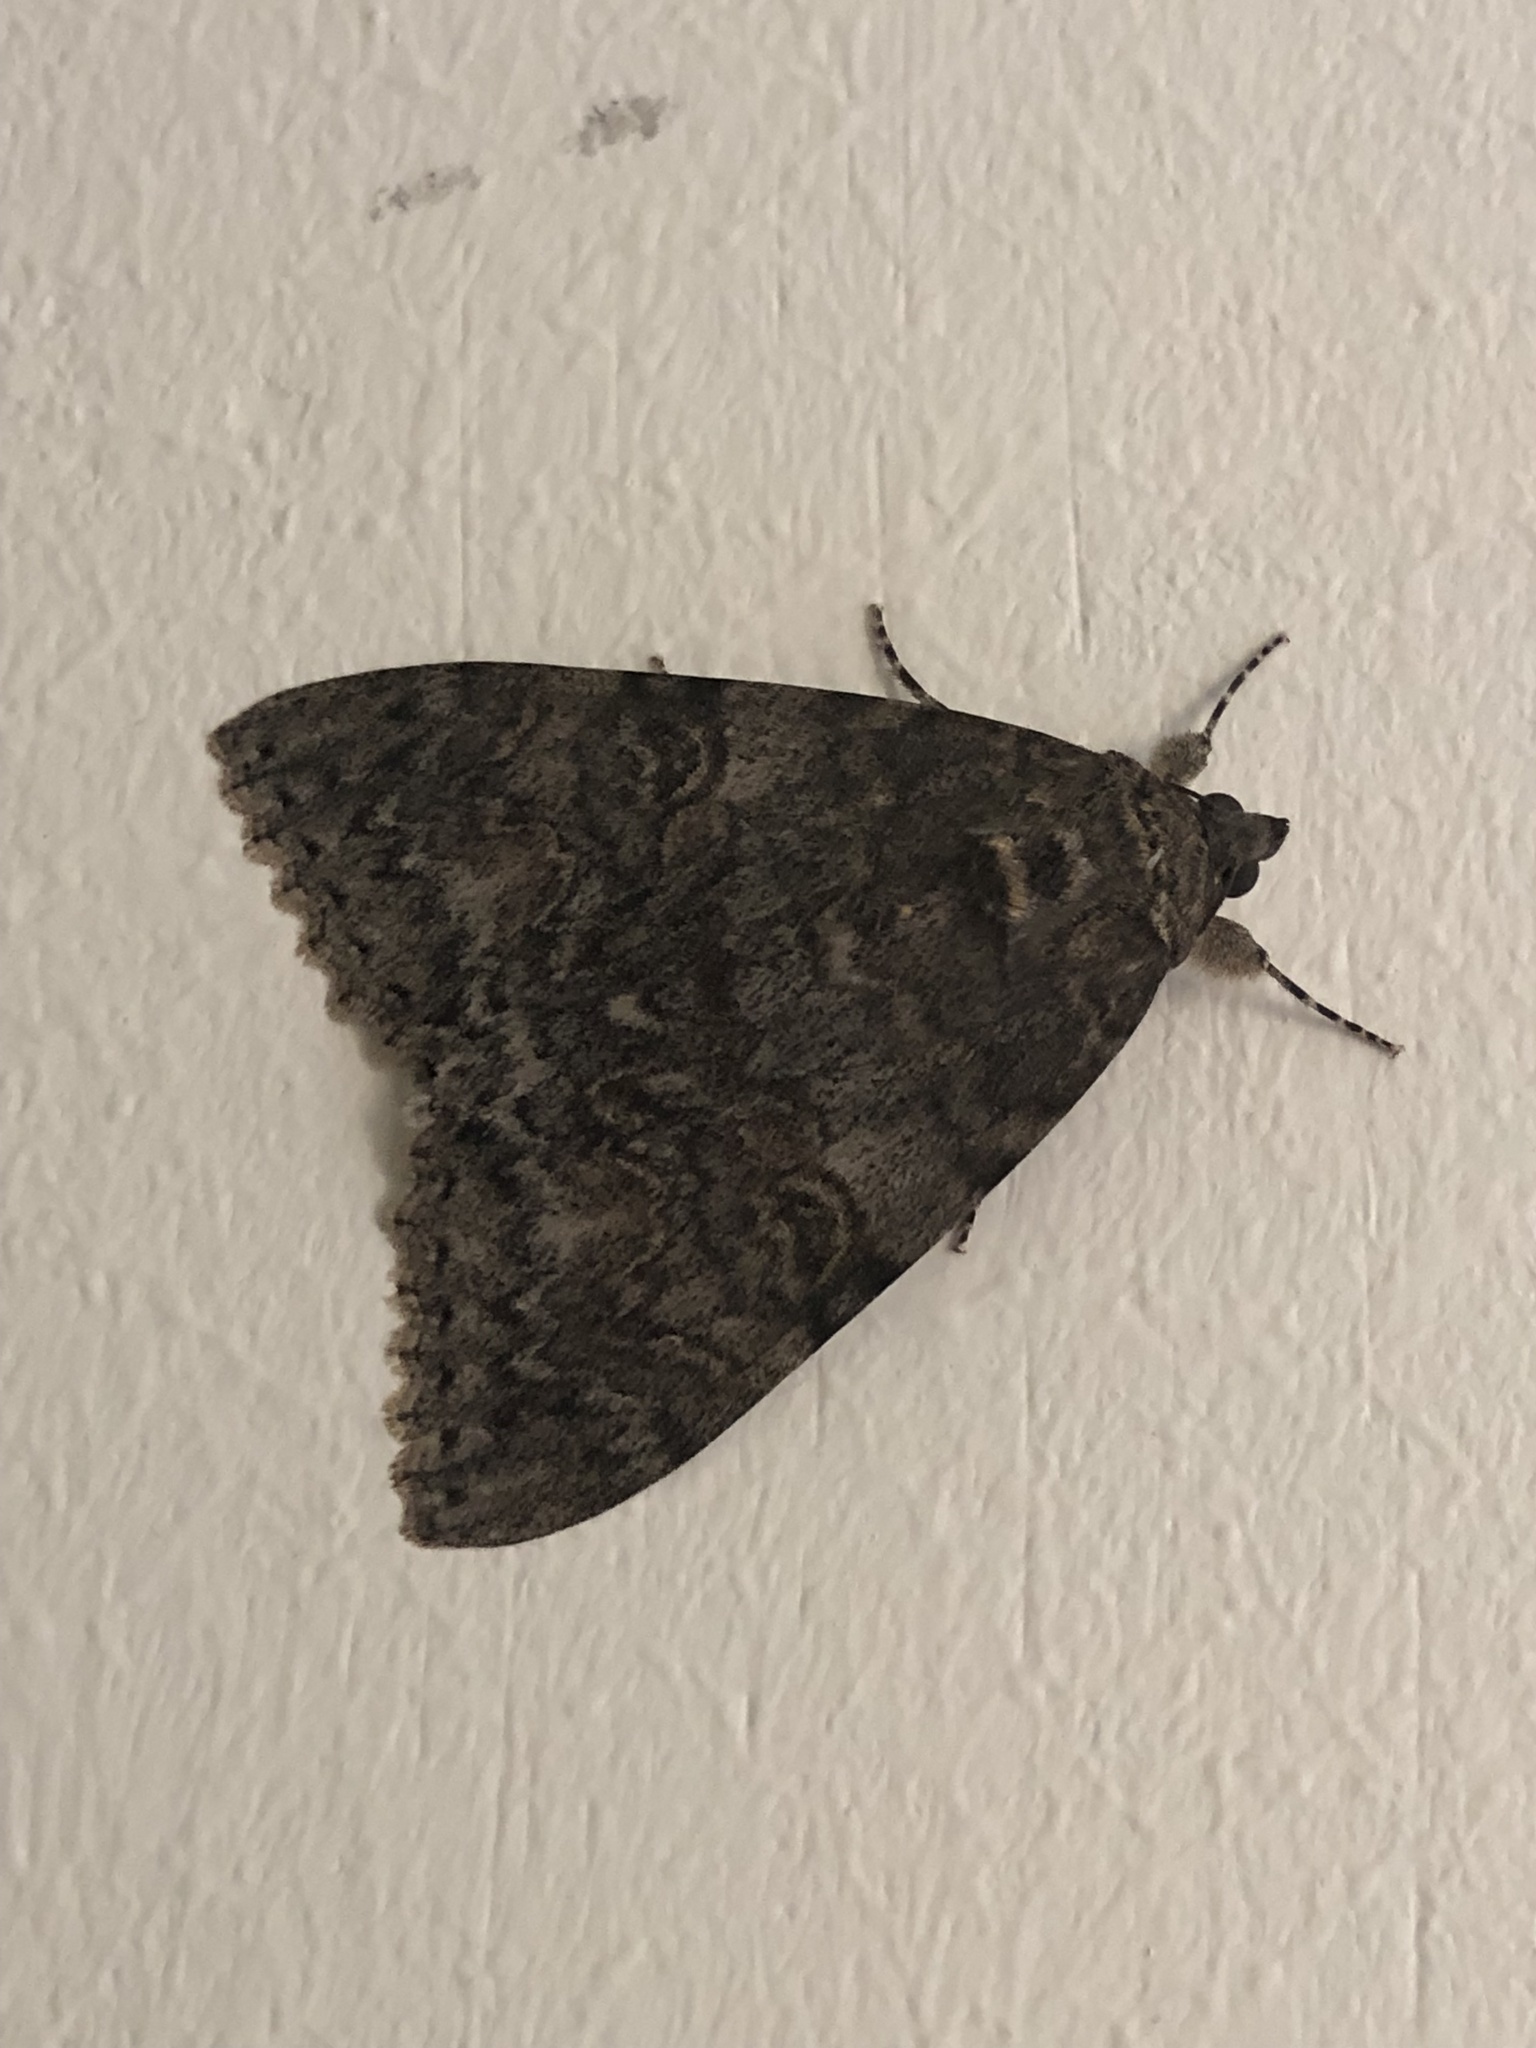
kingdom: Animalia
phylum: Arthropoda
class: Insecta
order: Lepidoptera
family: Erebidae
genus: Catocala
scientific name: Catocala nupta
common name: Red underwing
